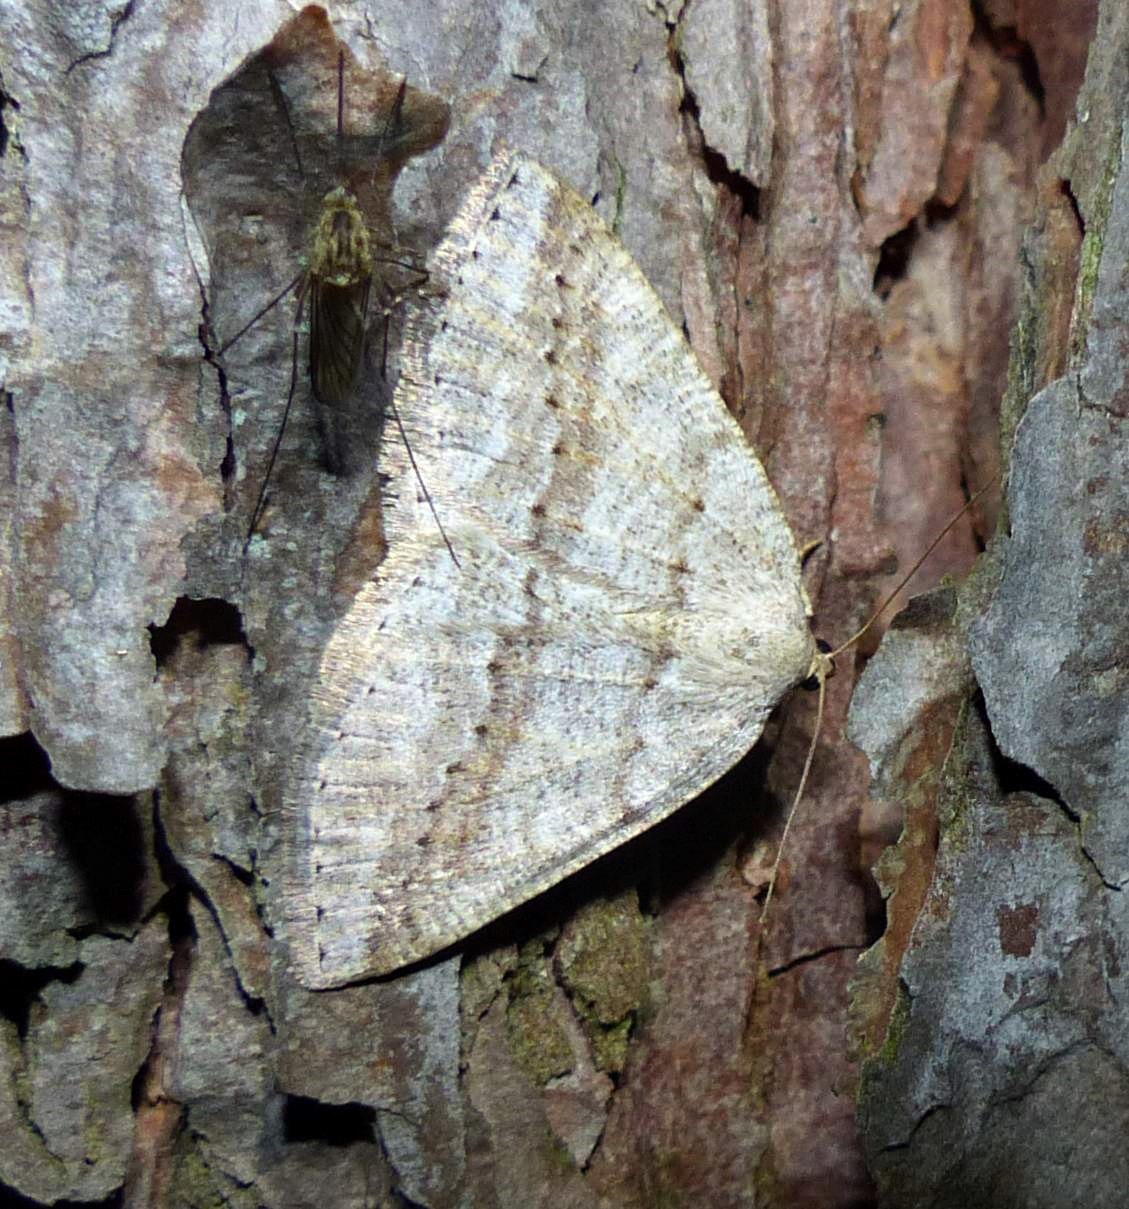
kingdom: Animalia
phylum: Arthropoda
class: Insecta
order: Lepidoptera
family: Geometridae
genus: Tacparia
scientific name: Tacparia detersata
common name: Pale alder moth
